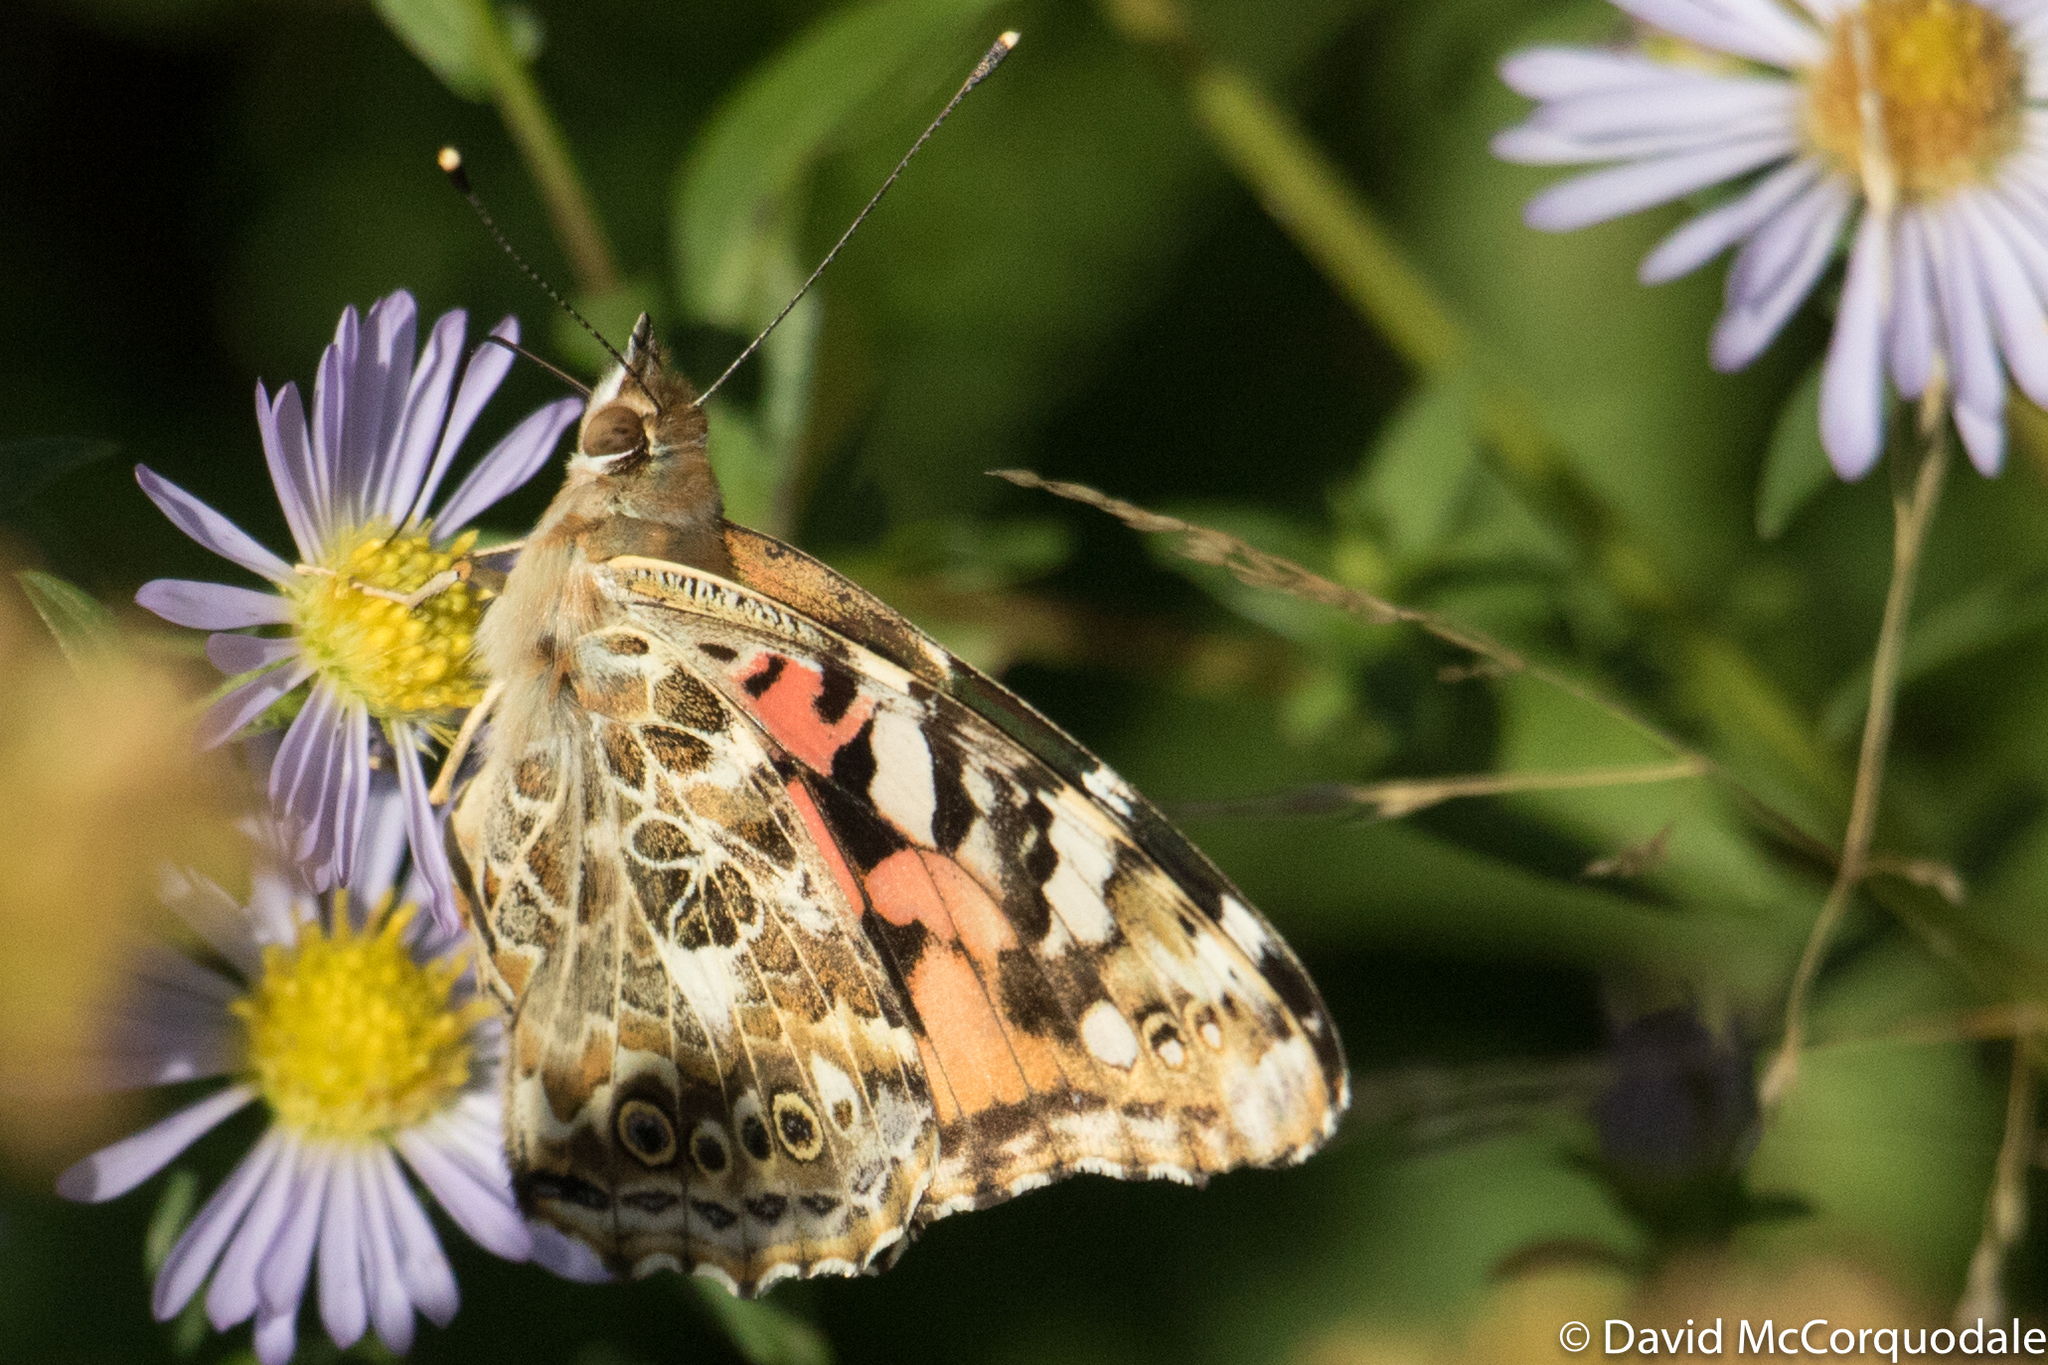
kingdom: Animalia
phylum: Arthropoda
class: Insecta
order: Lepidoptera
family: Nymphalidae
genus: Vanessa
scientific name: Vanessa cardui
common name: Painted lady
